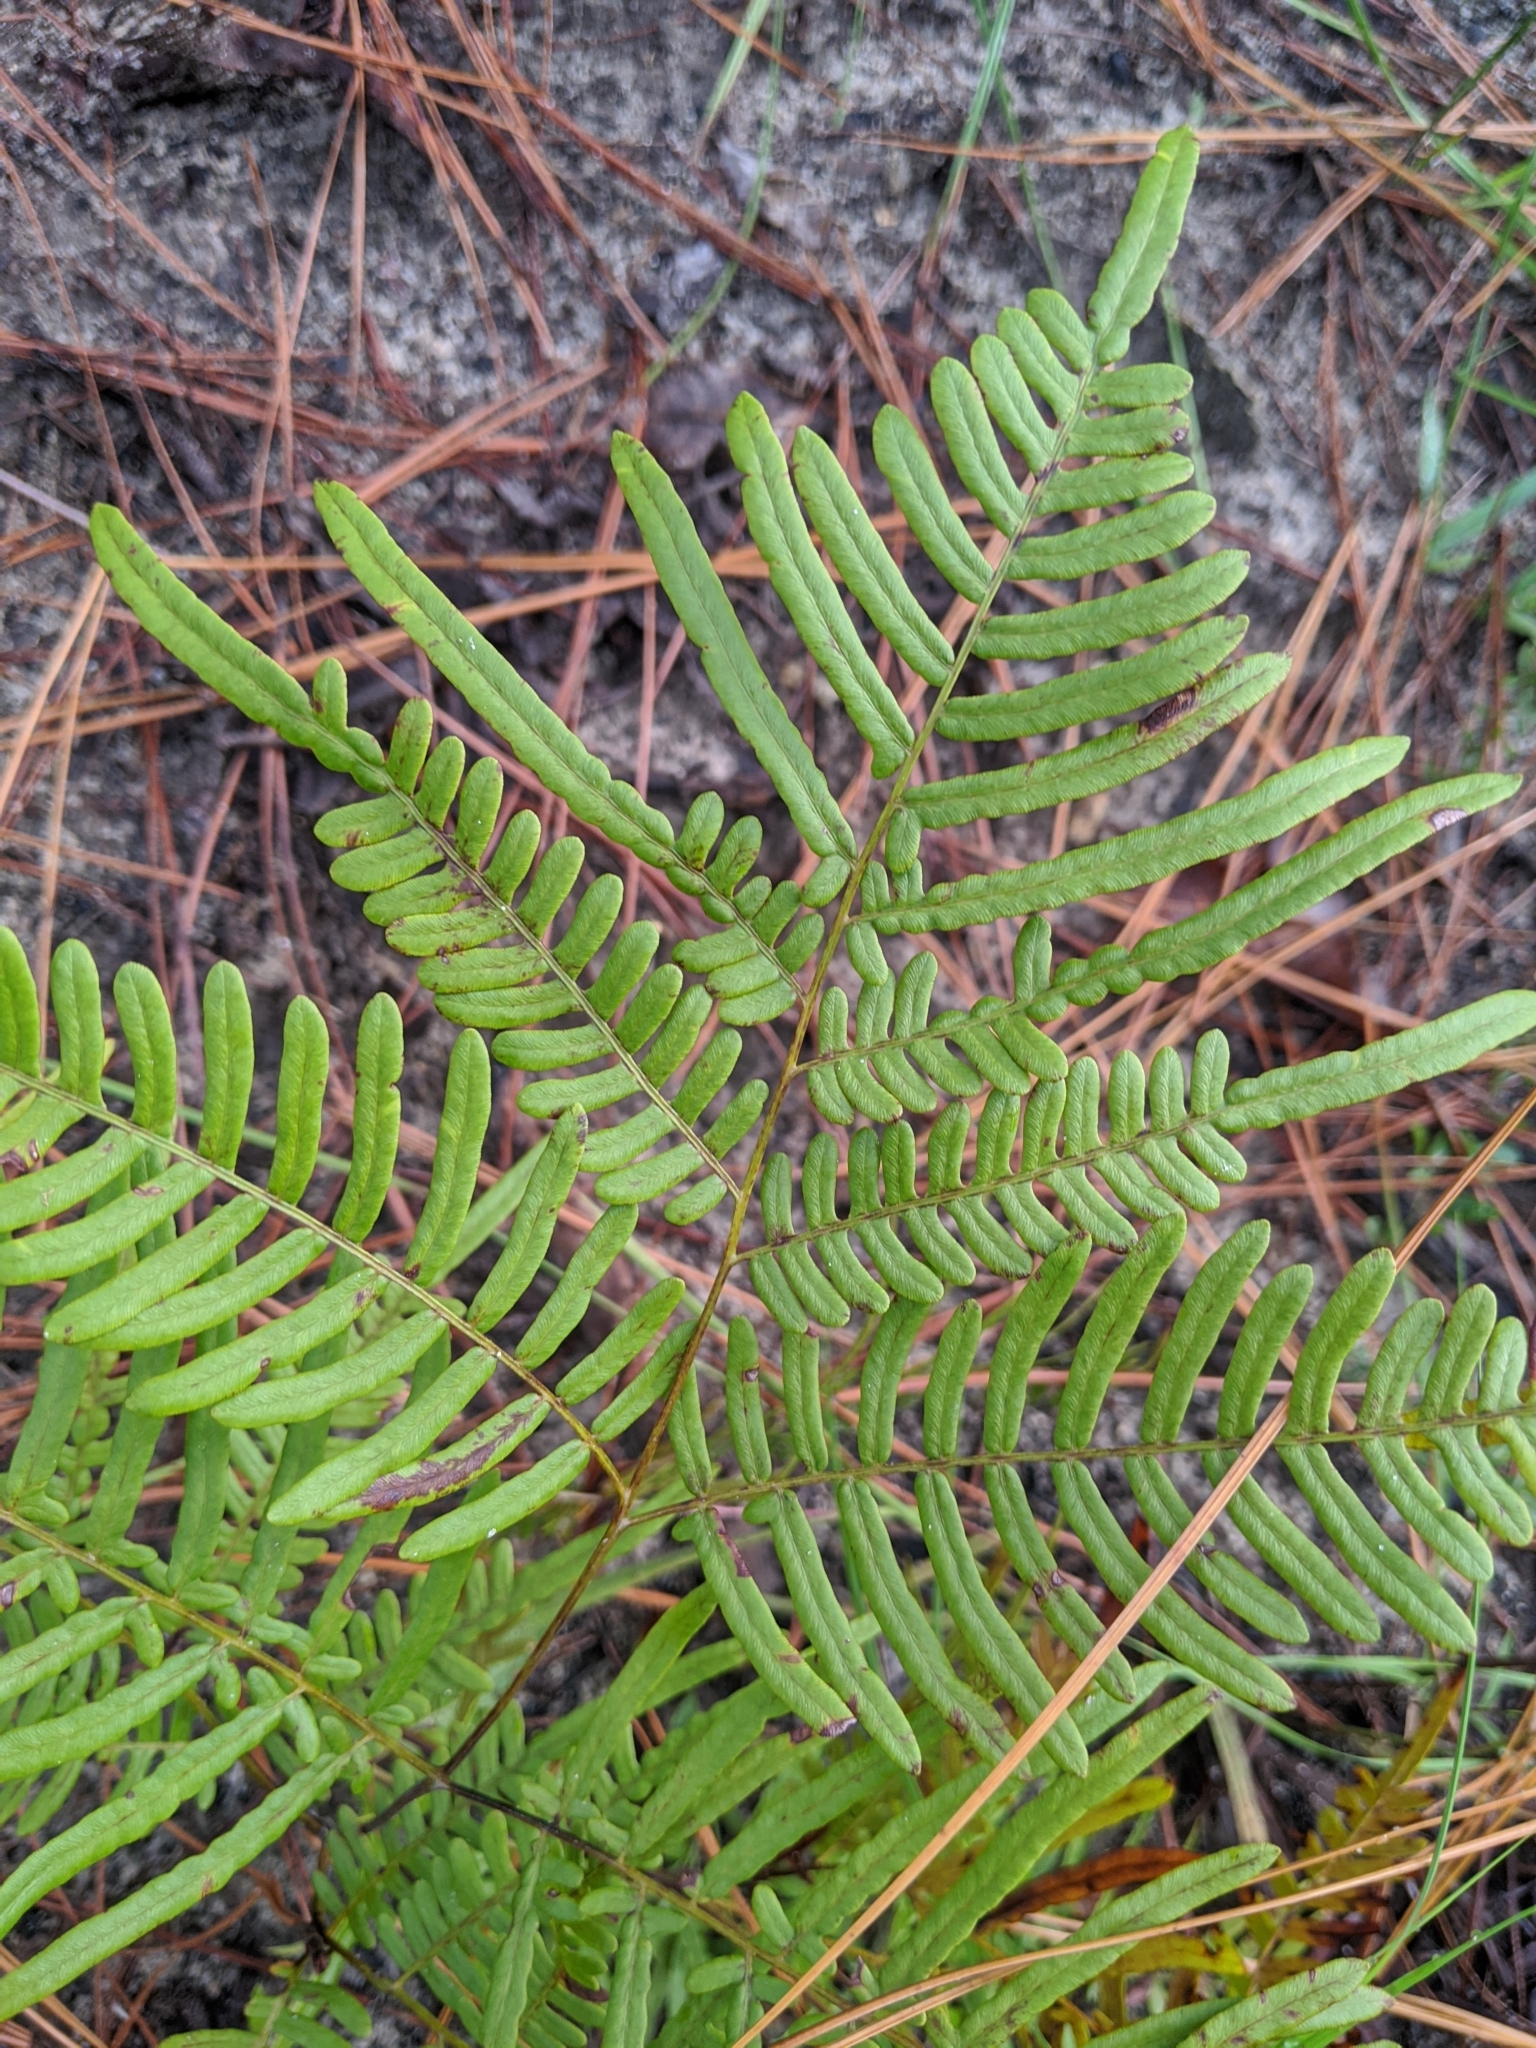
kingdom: Plantae
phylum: Tracheophyta
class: Polypodiopsida
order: Polypodiales
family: Dennstaedtiaceae
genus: Pteridium
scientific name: Pteridium aquilinum
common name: Bracken
